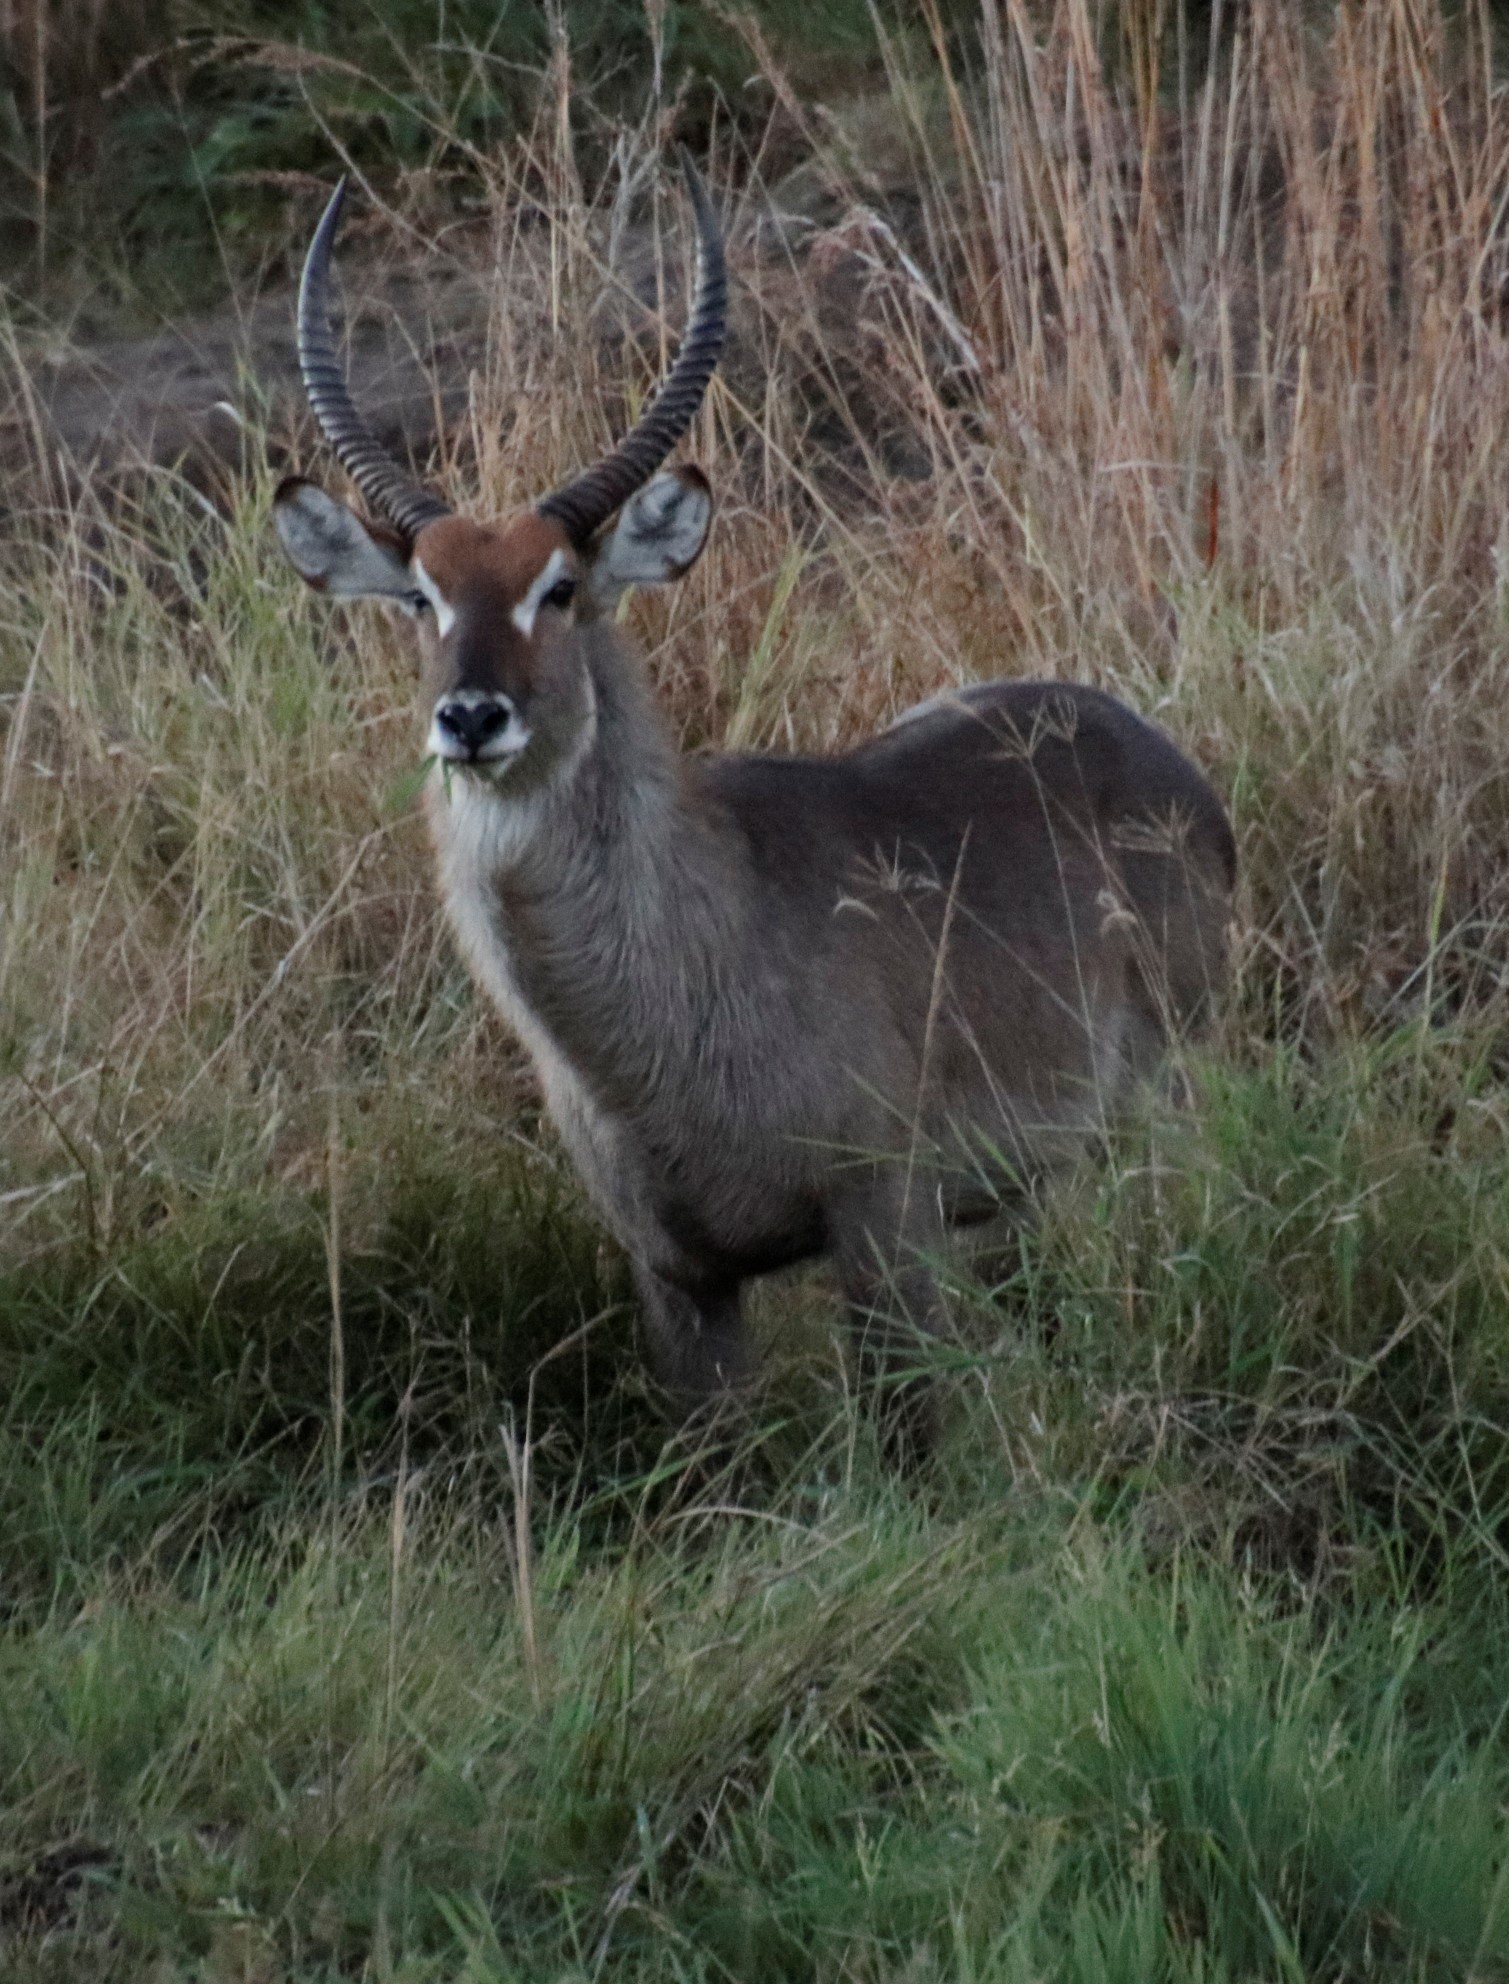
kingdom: Animalia
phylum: Chordata
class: Mammalia
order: Artiodactyla
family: Bovidae
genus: Kobus
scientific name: Kobus ellipsiprymnus
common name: Waterbuck
